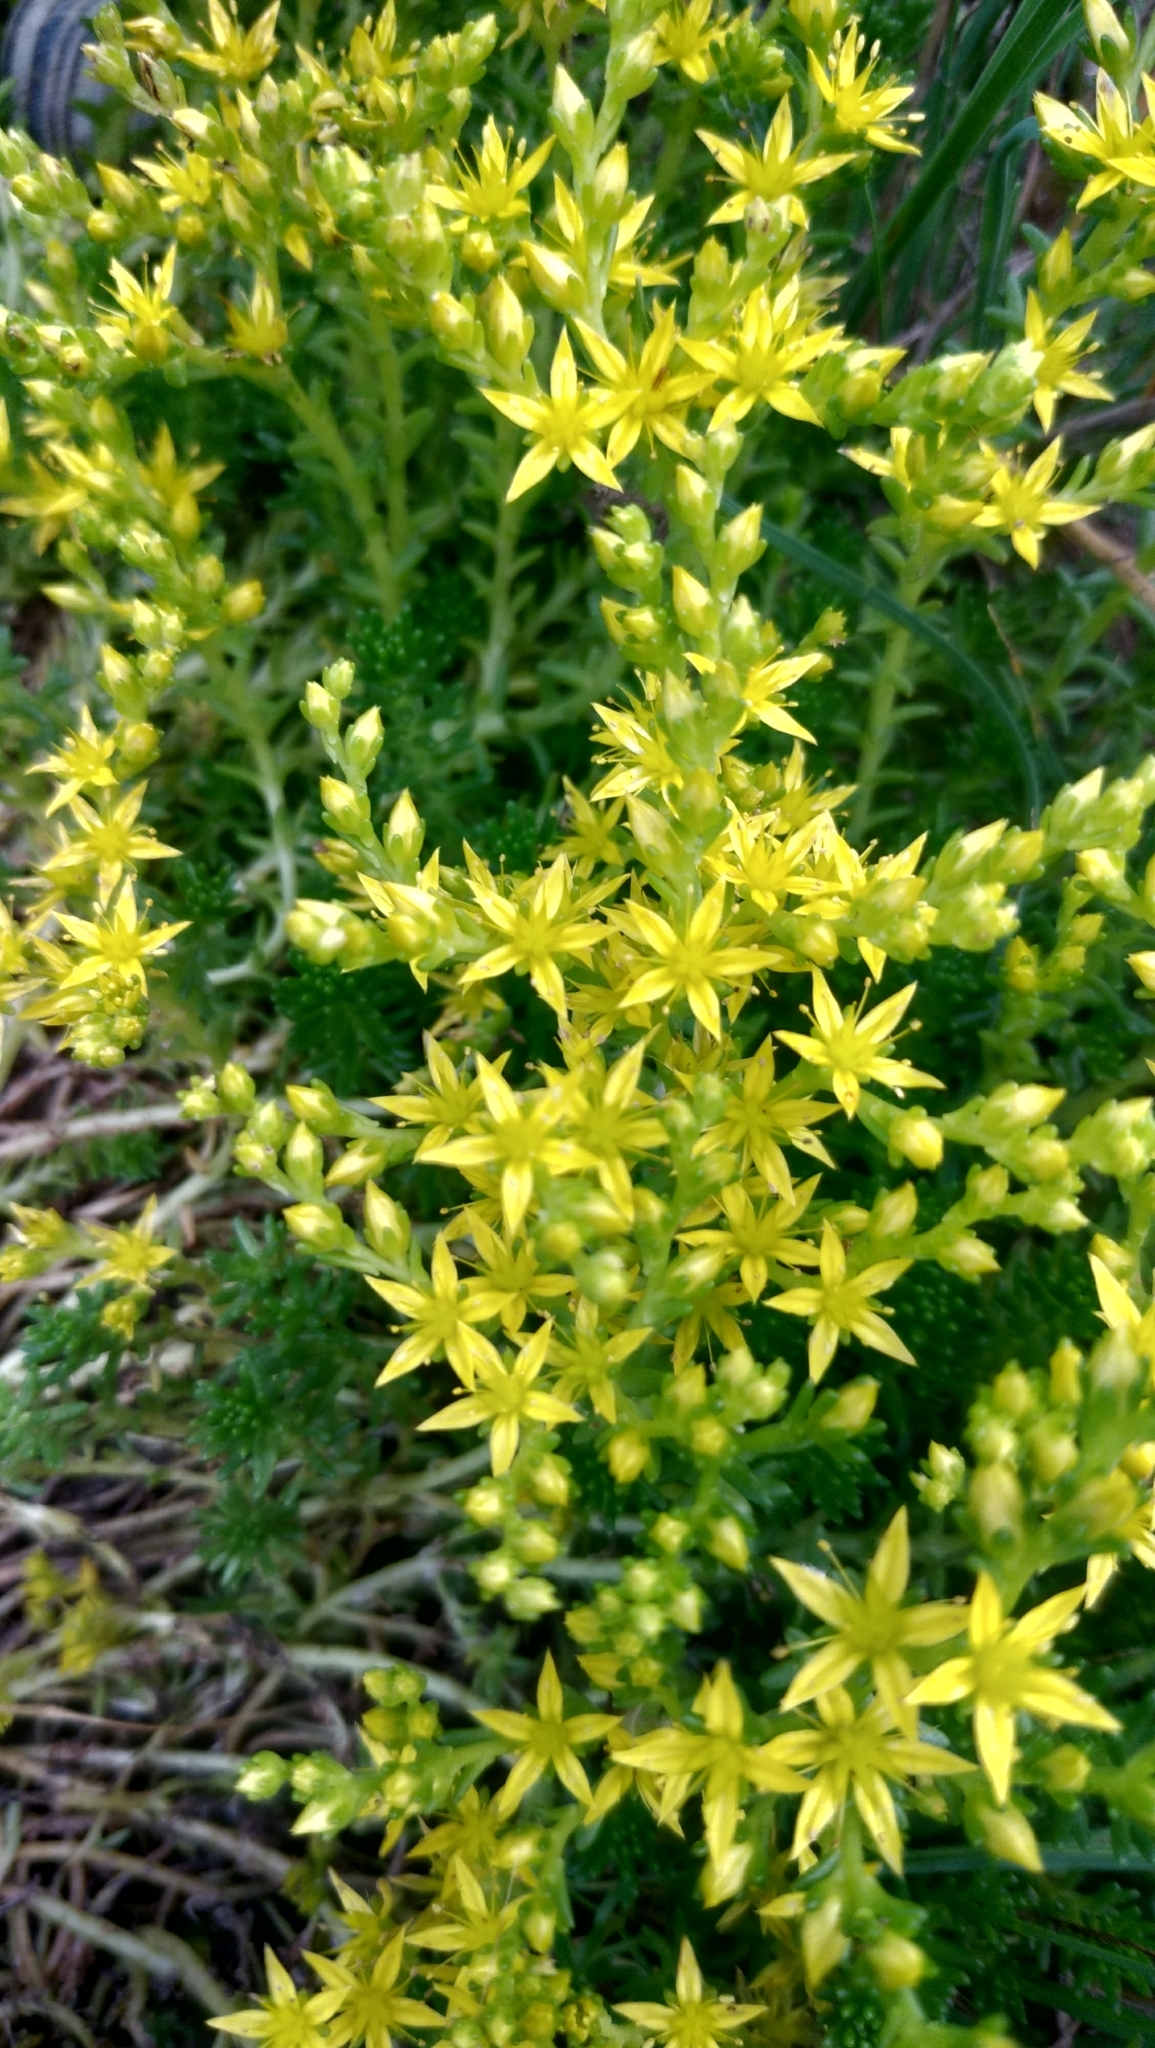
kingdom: Plantae
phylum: Tracheophyta
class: Magnoliopsida
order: Saxifragales
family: Crassulaceae
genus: Sedum
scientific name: Sedum sexangulare
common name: Tasteless stonecrop
